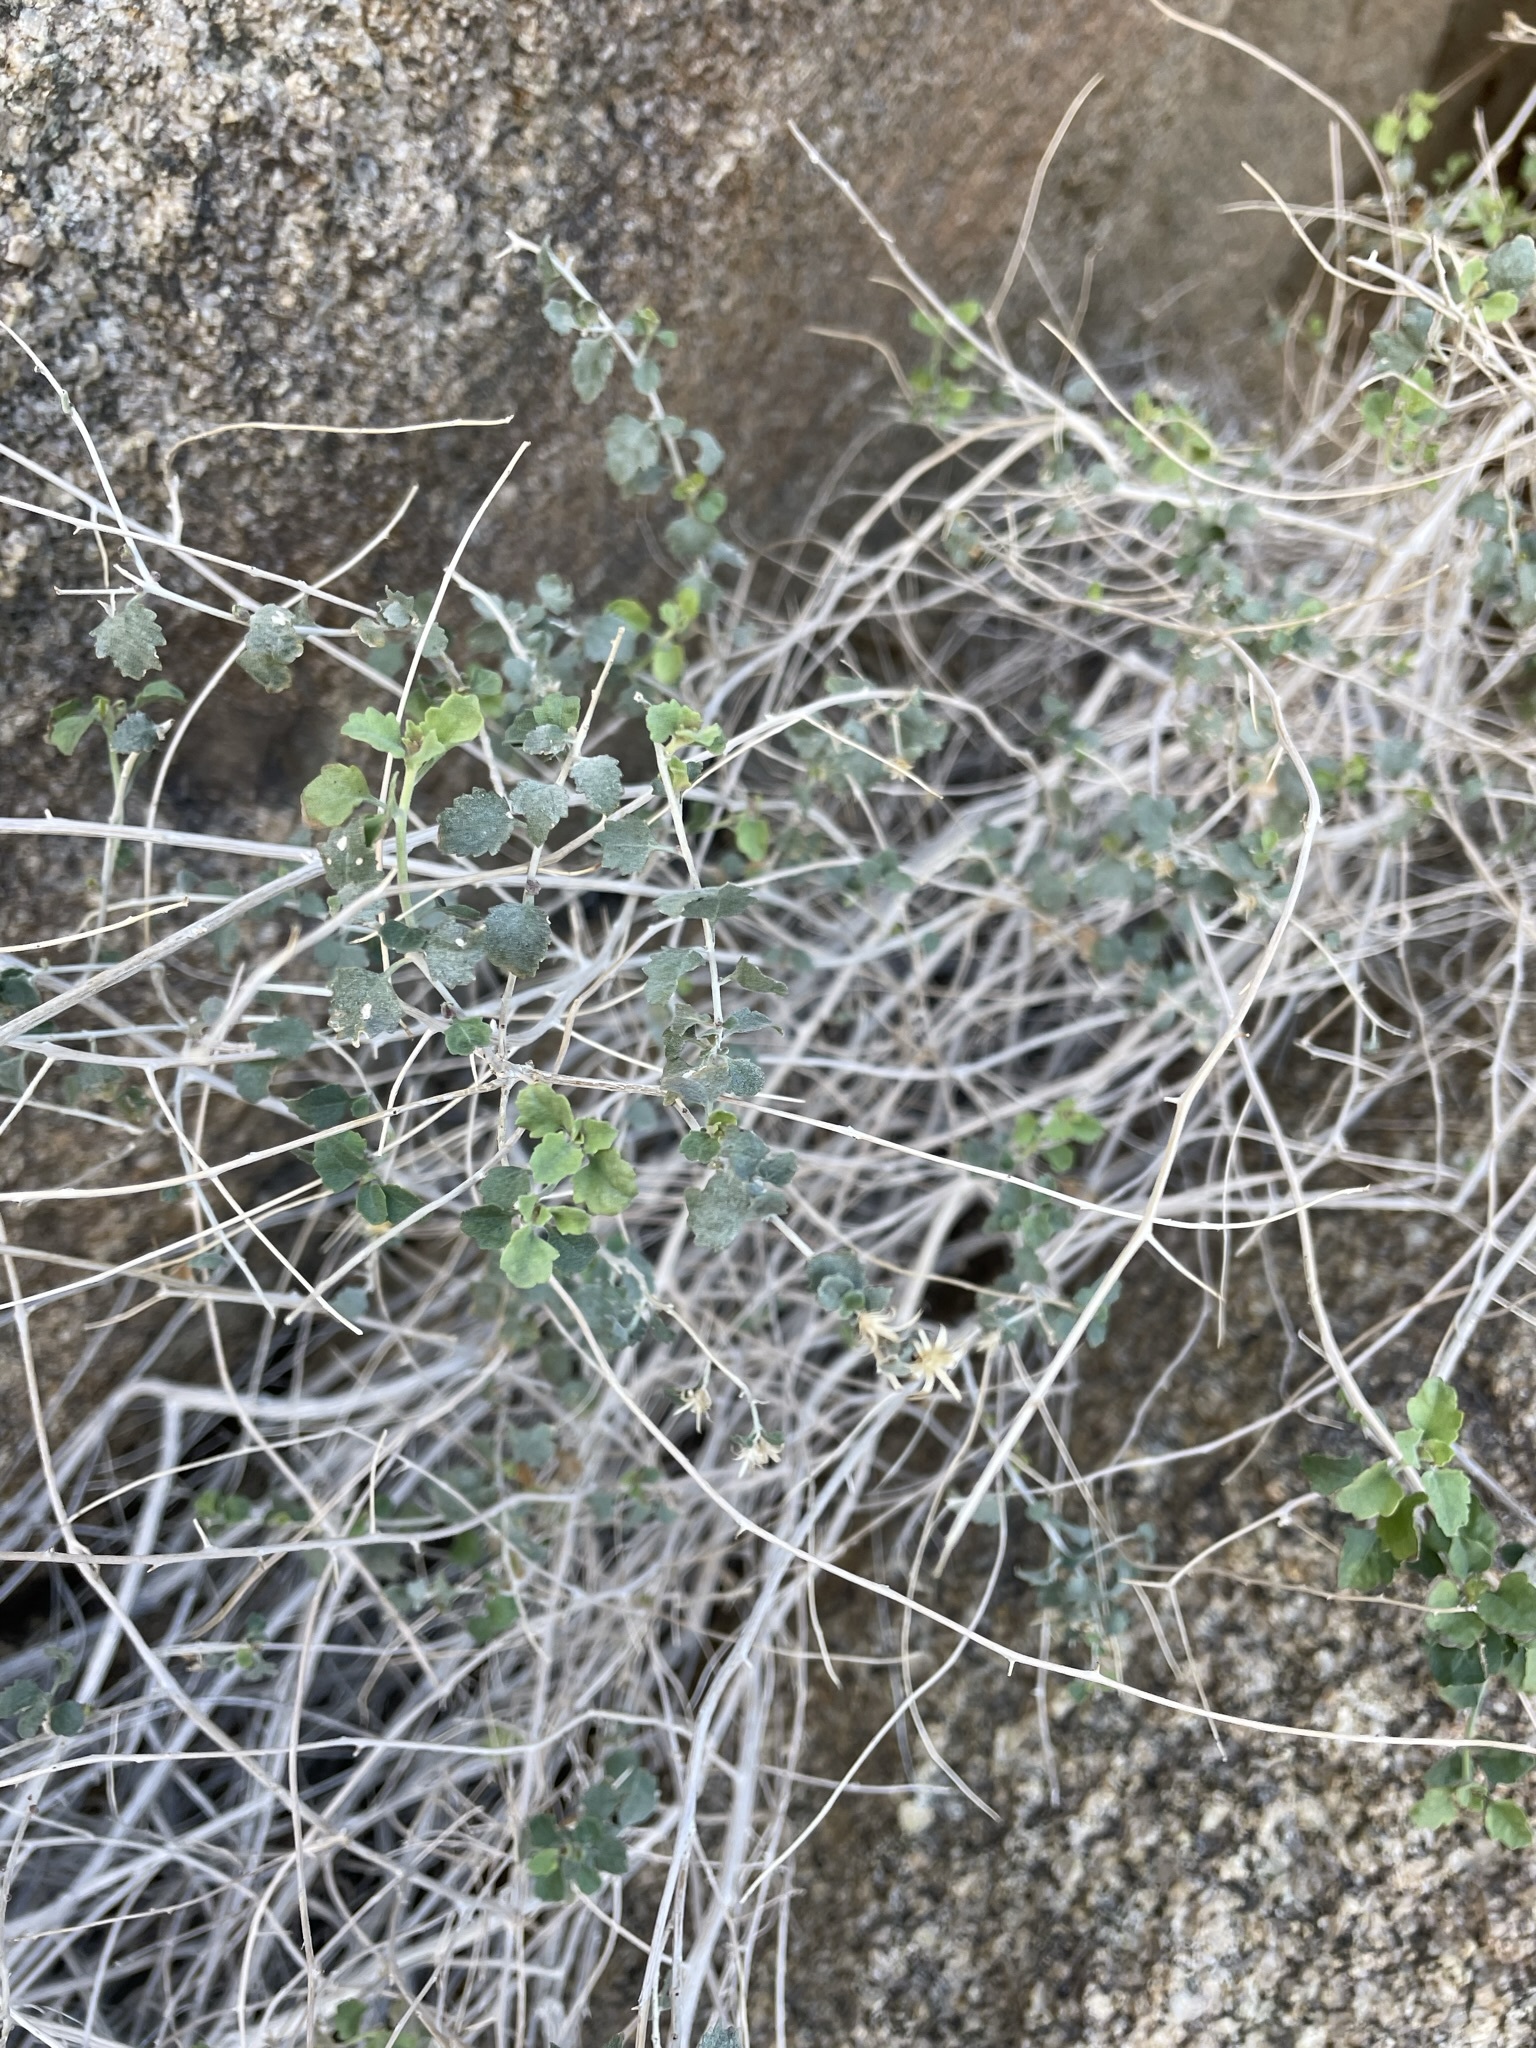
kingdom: Plantae
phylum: Tracheophyta
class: Magnoliopsida
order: Asterales
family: Asteraceae
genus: Brickellia
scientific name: Brickellia desertorum
